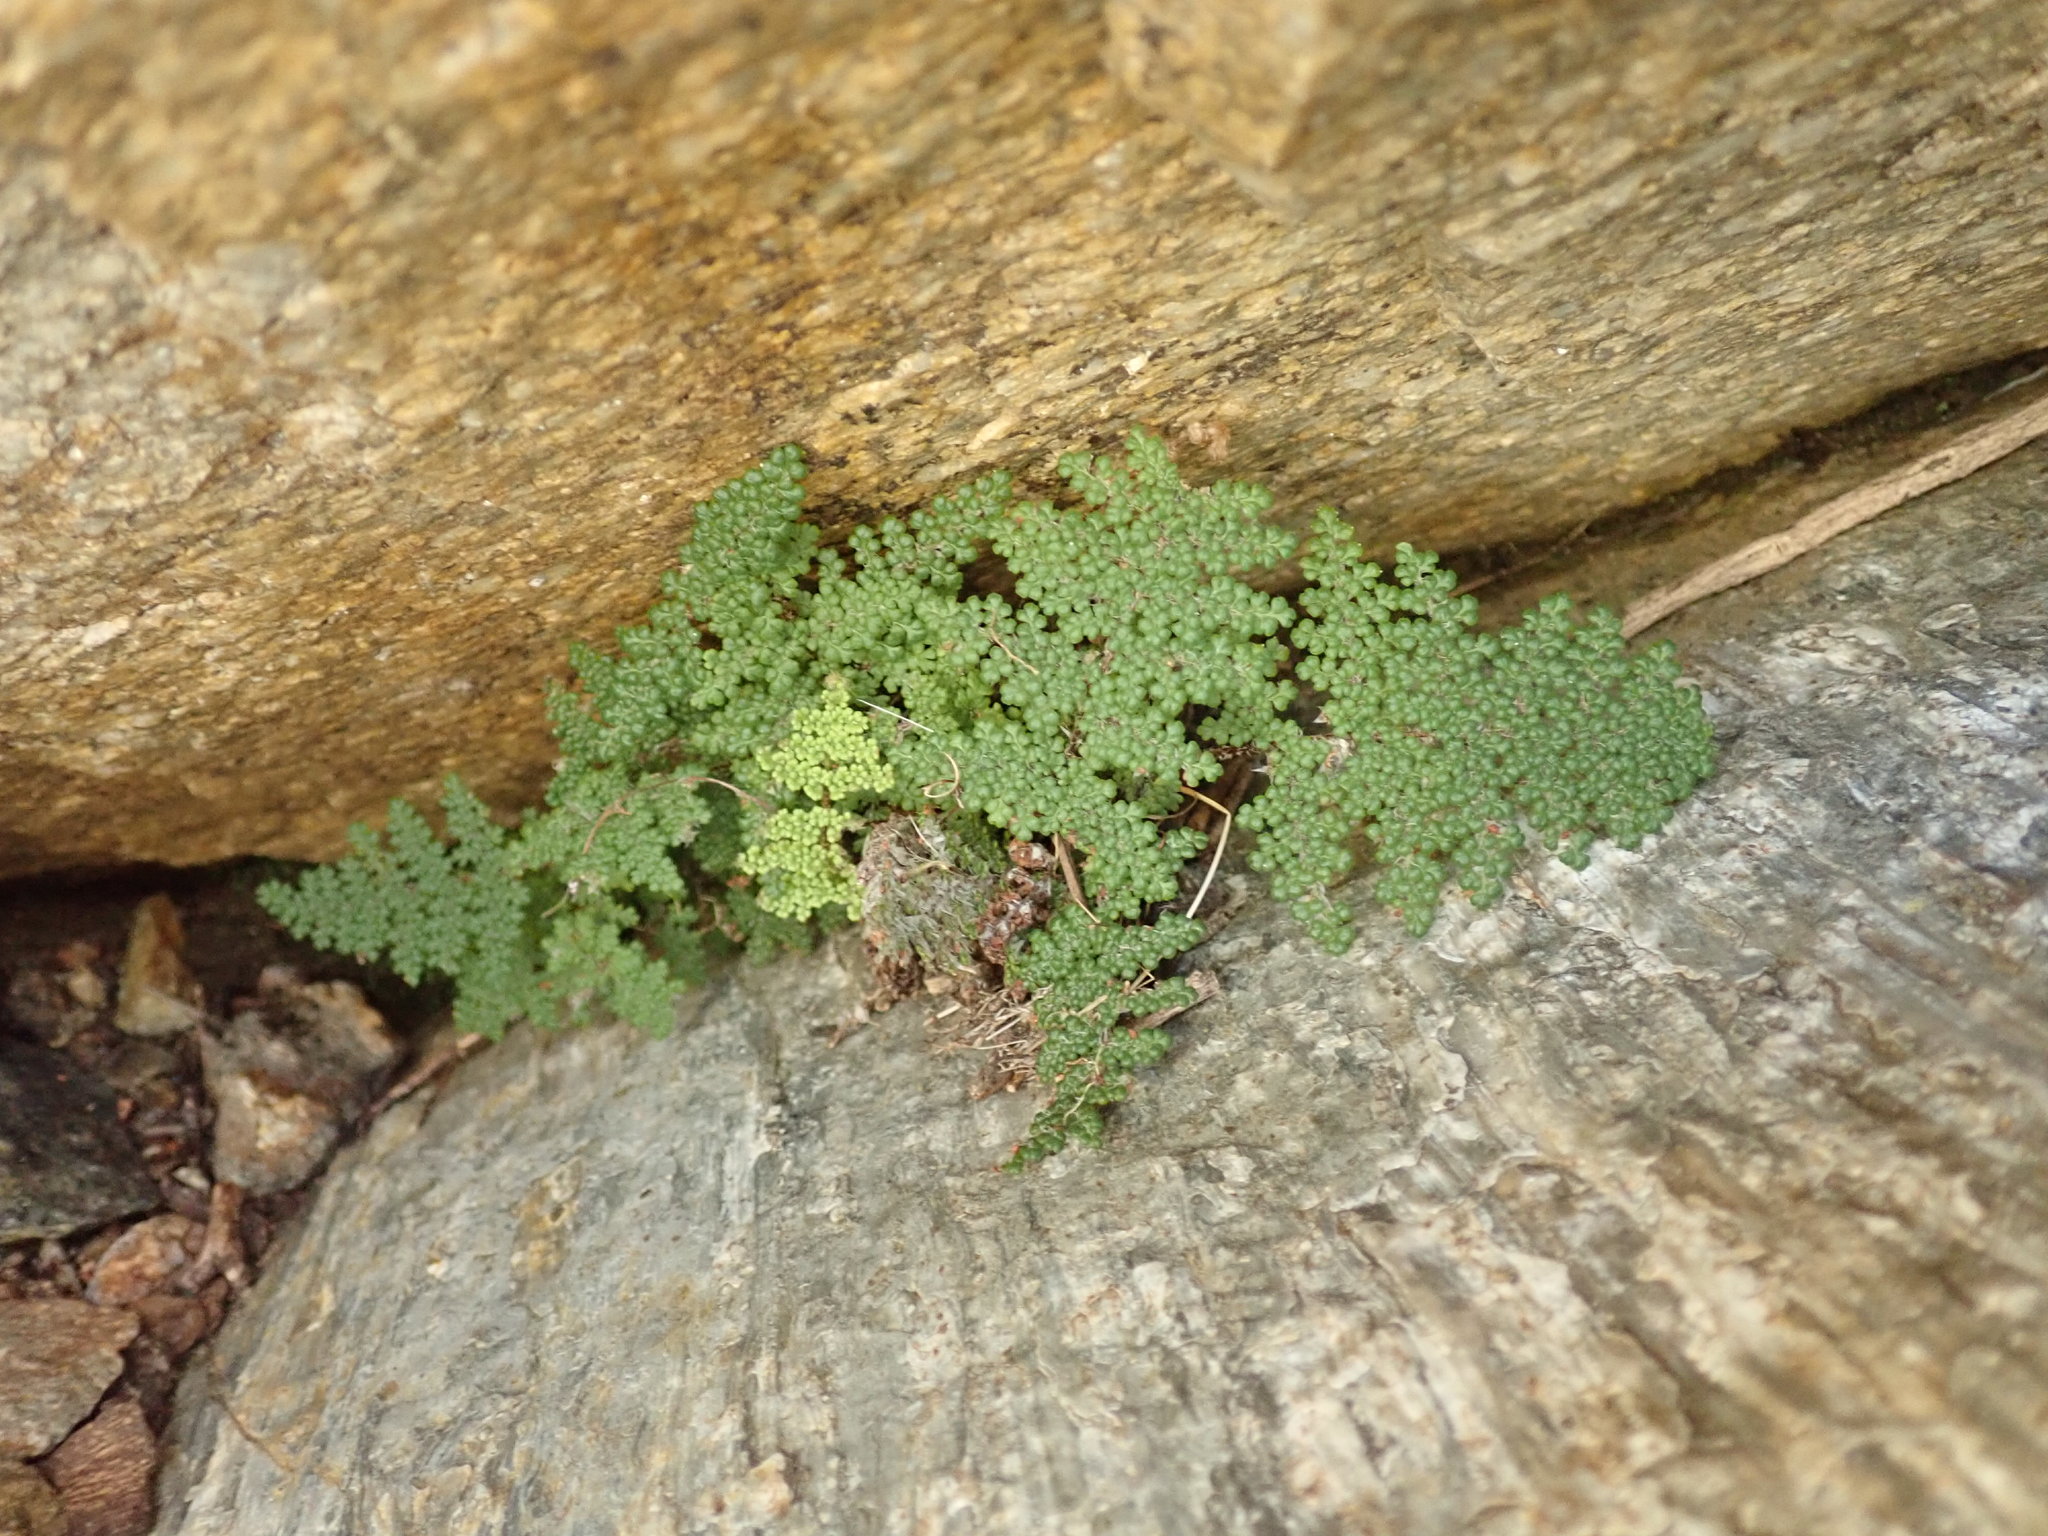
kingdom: Plantae
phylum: Tracheophyta
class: Polypodiopsida
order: Polypodiales
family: Pteridaceae
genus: Myriopteris
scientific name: Myriopteris covillei
